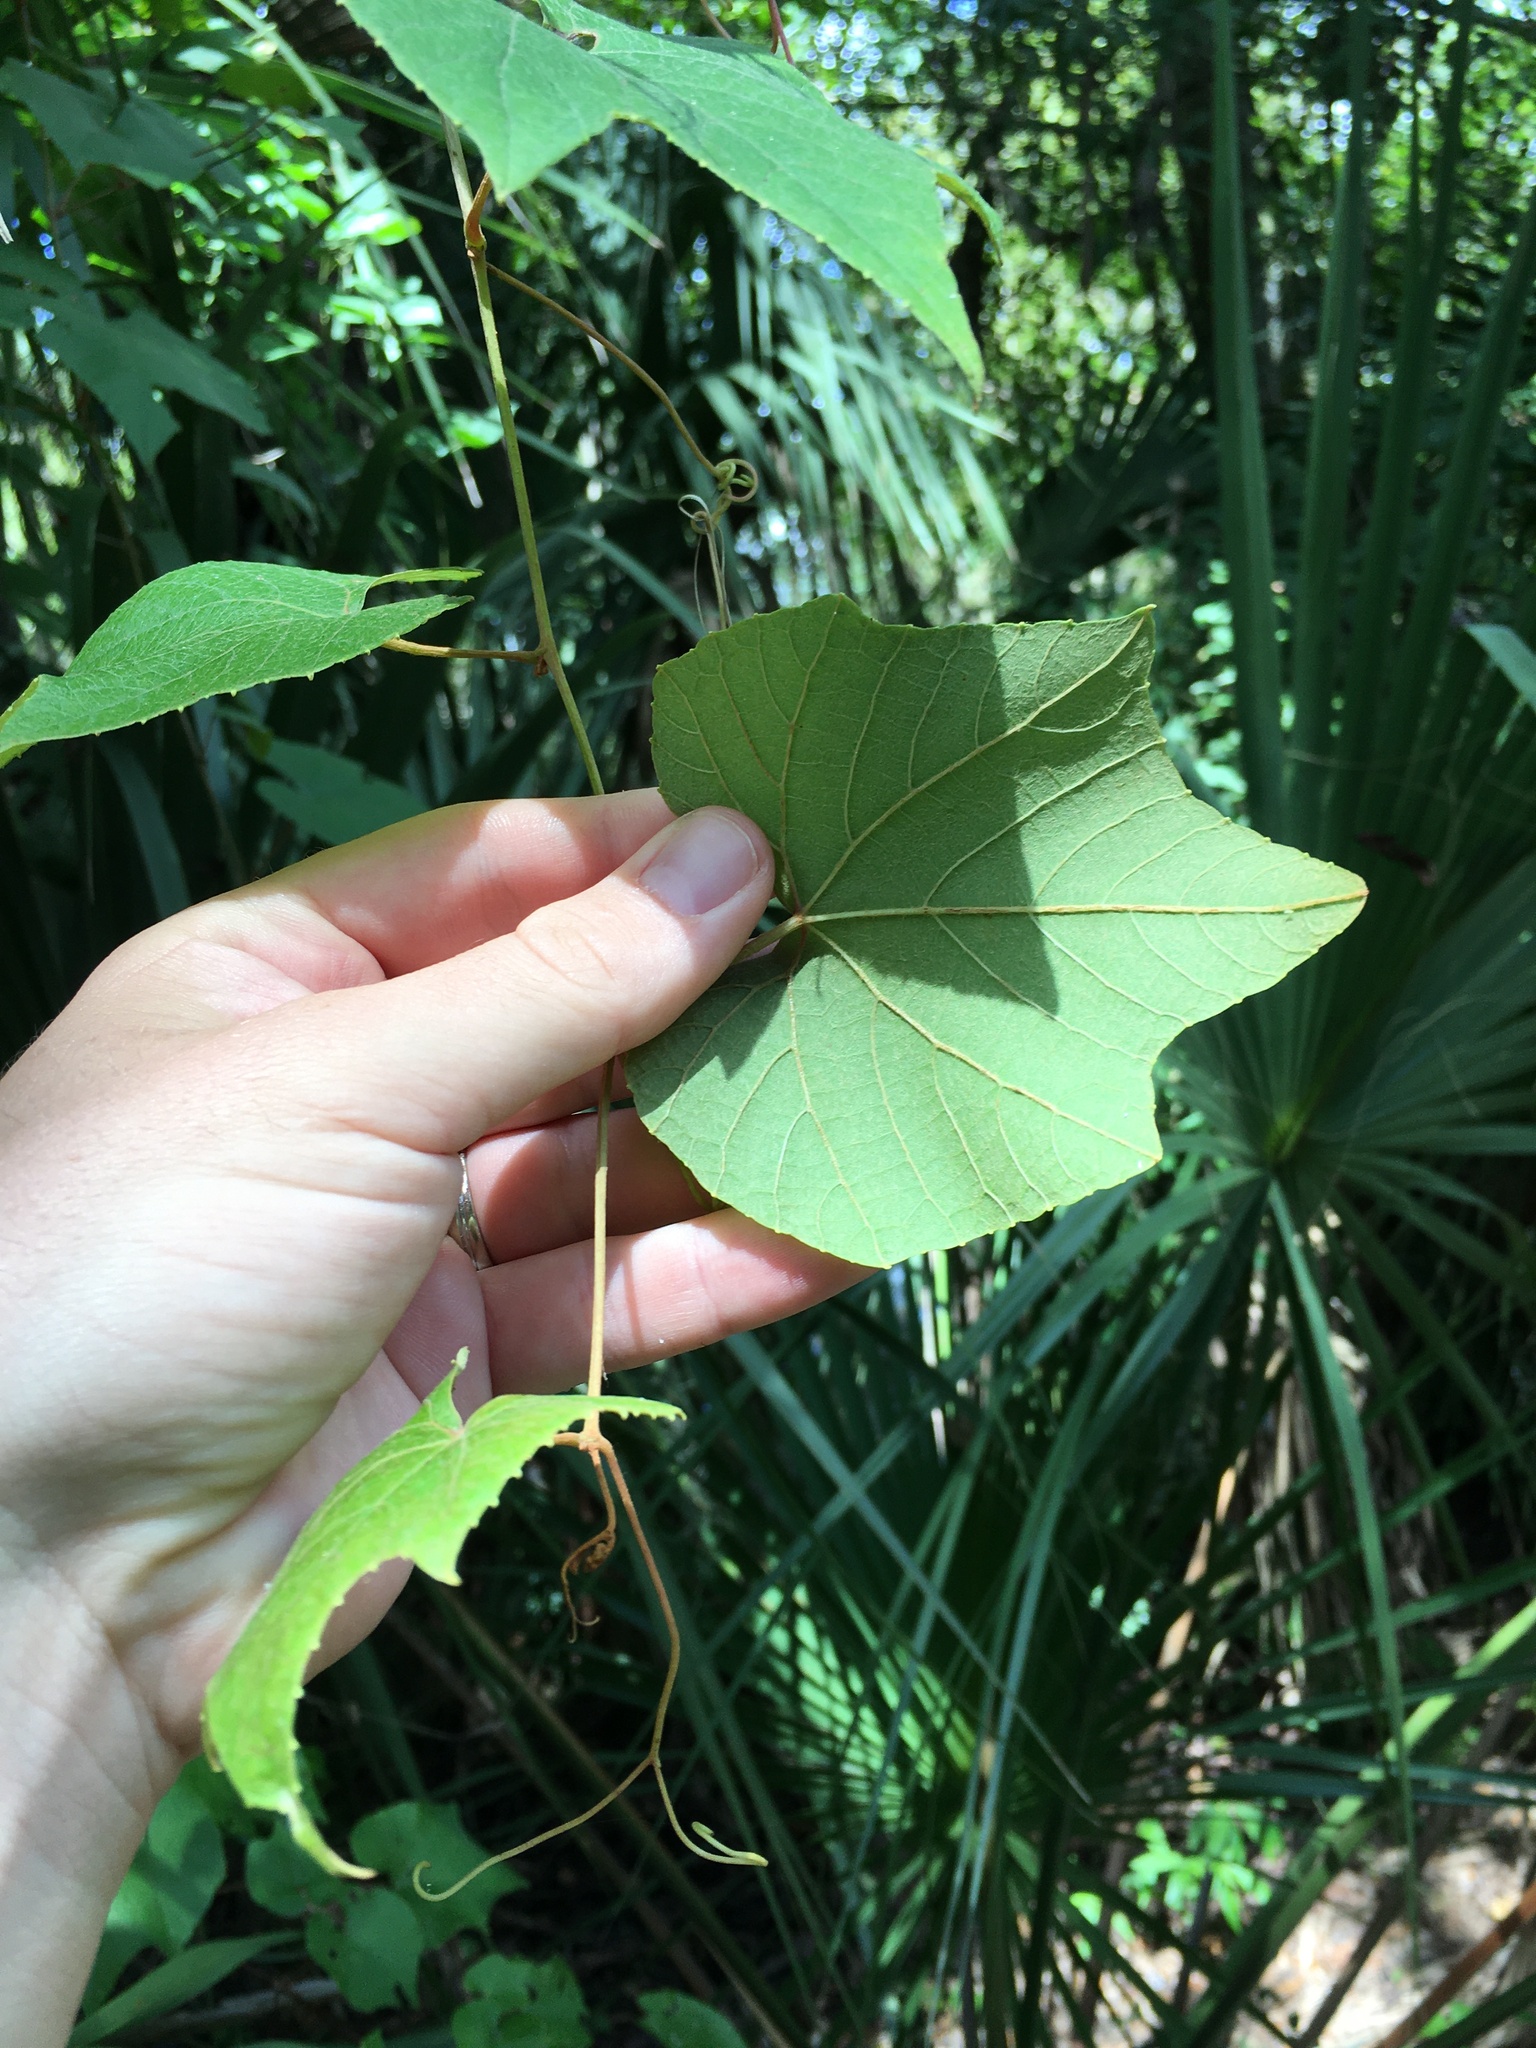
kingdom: Plantae
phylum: Tracheophyta
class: Magnoliopsida
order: Vitales
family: Vitaceae
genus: Vitis
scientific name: Vitis cinerea
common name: Ashy grape
